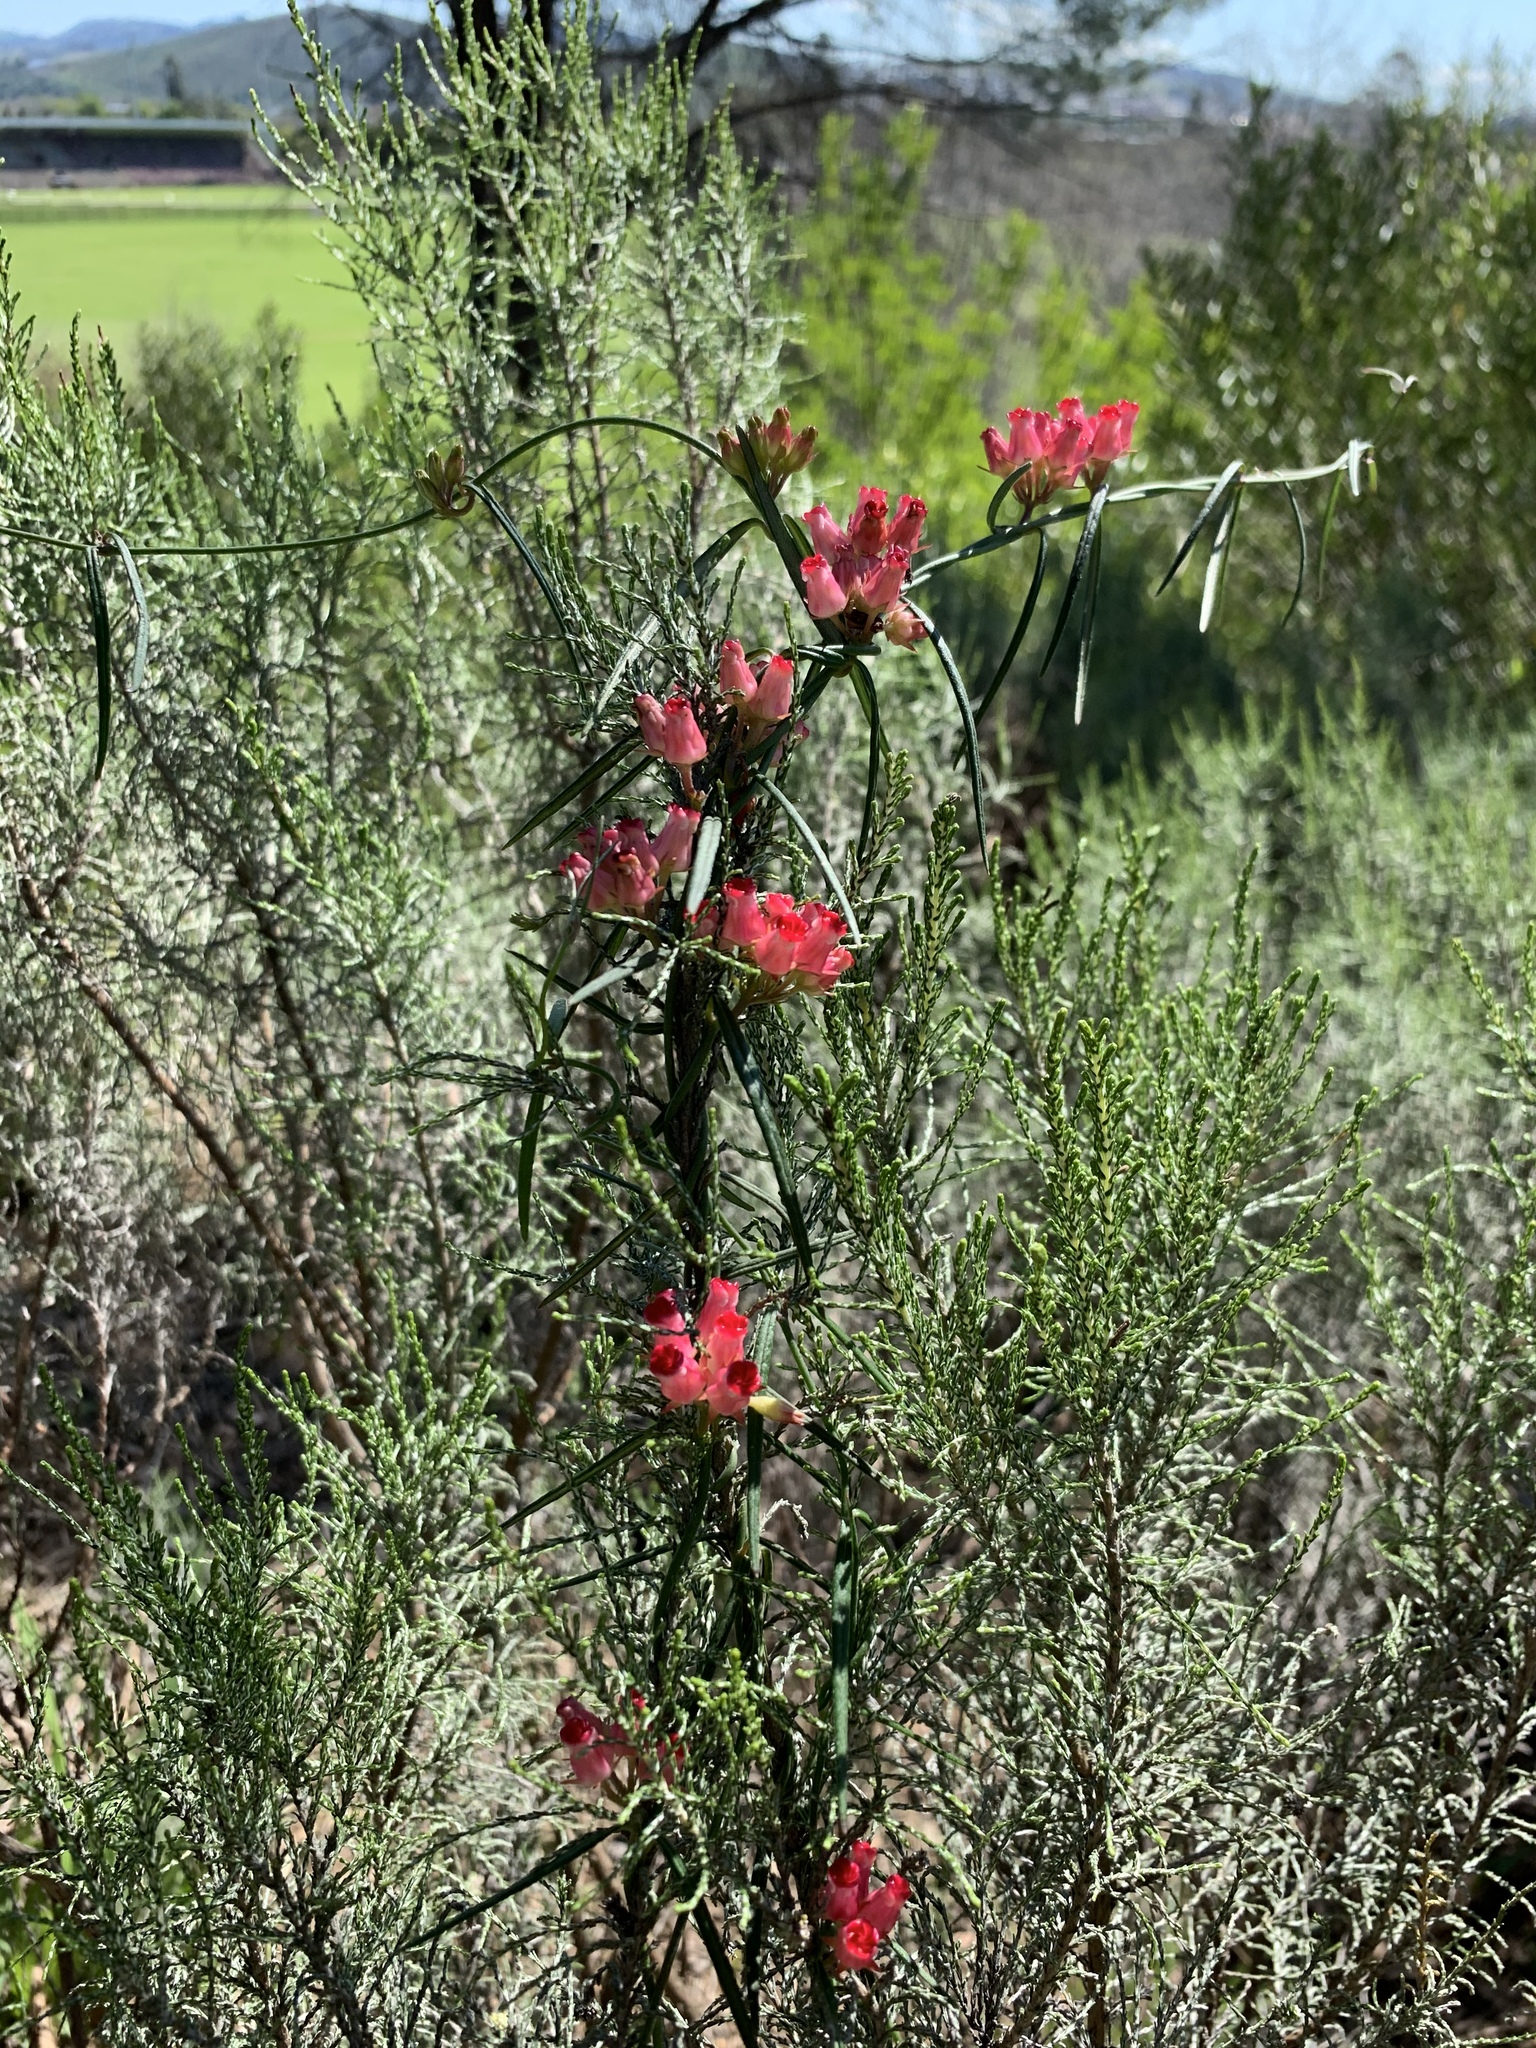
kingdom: Plantae
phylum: Tracheophyta
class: Magnoliopsida
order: Gentianales
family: Apocynaceae
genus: Microloma
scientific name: Microloma tenuifolium
